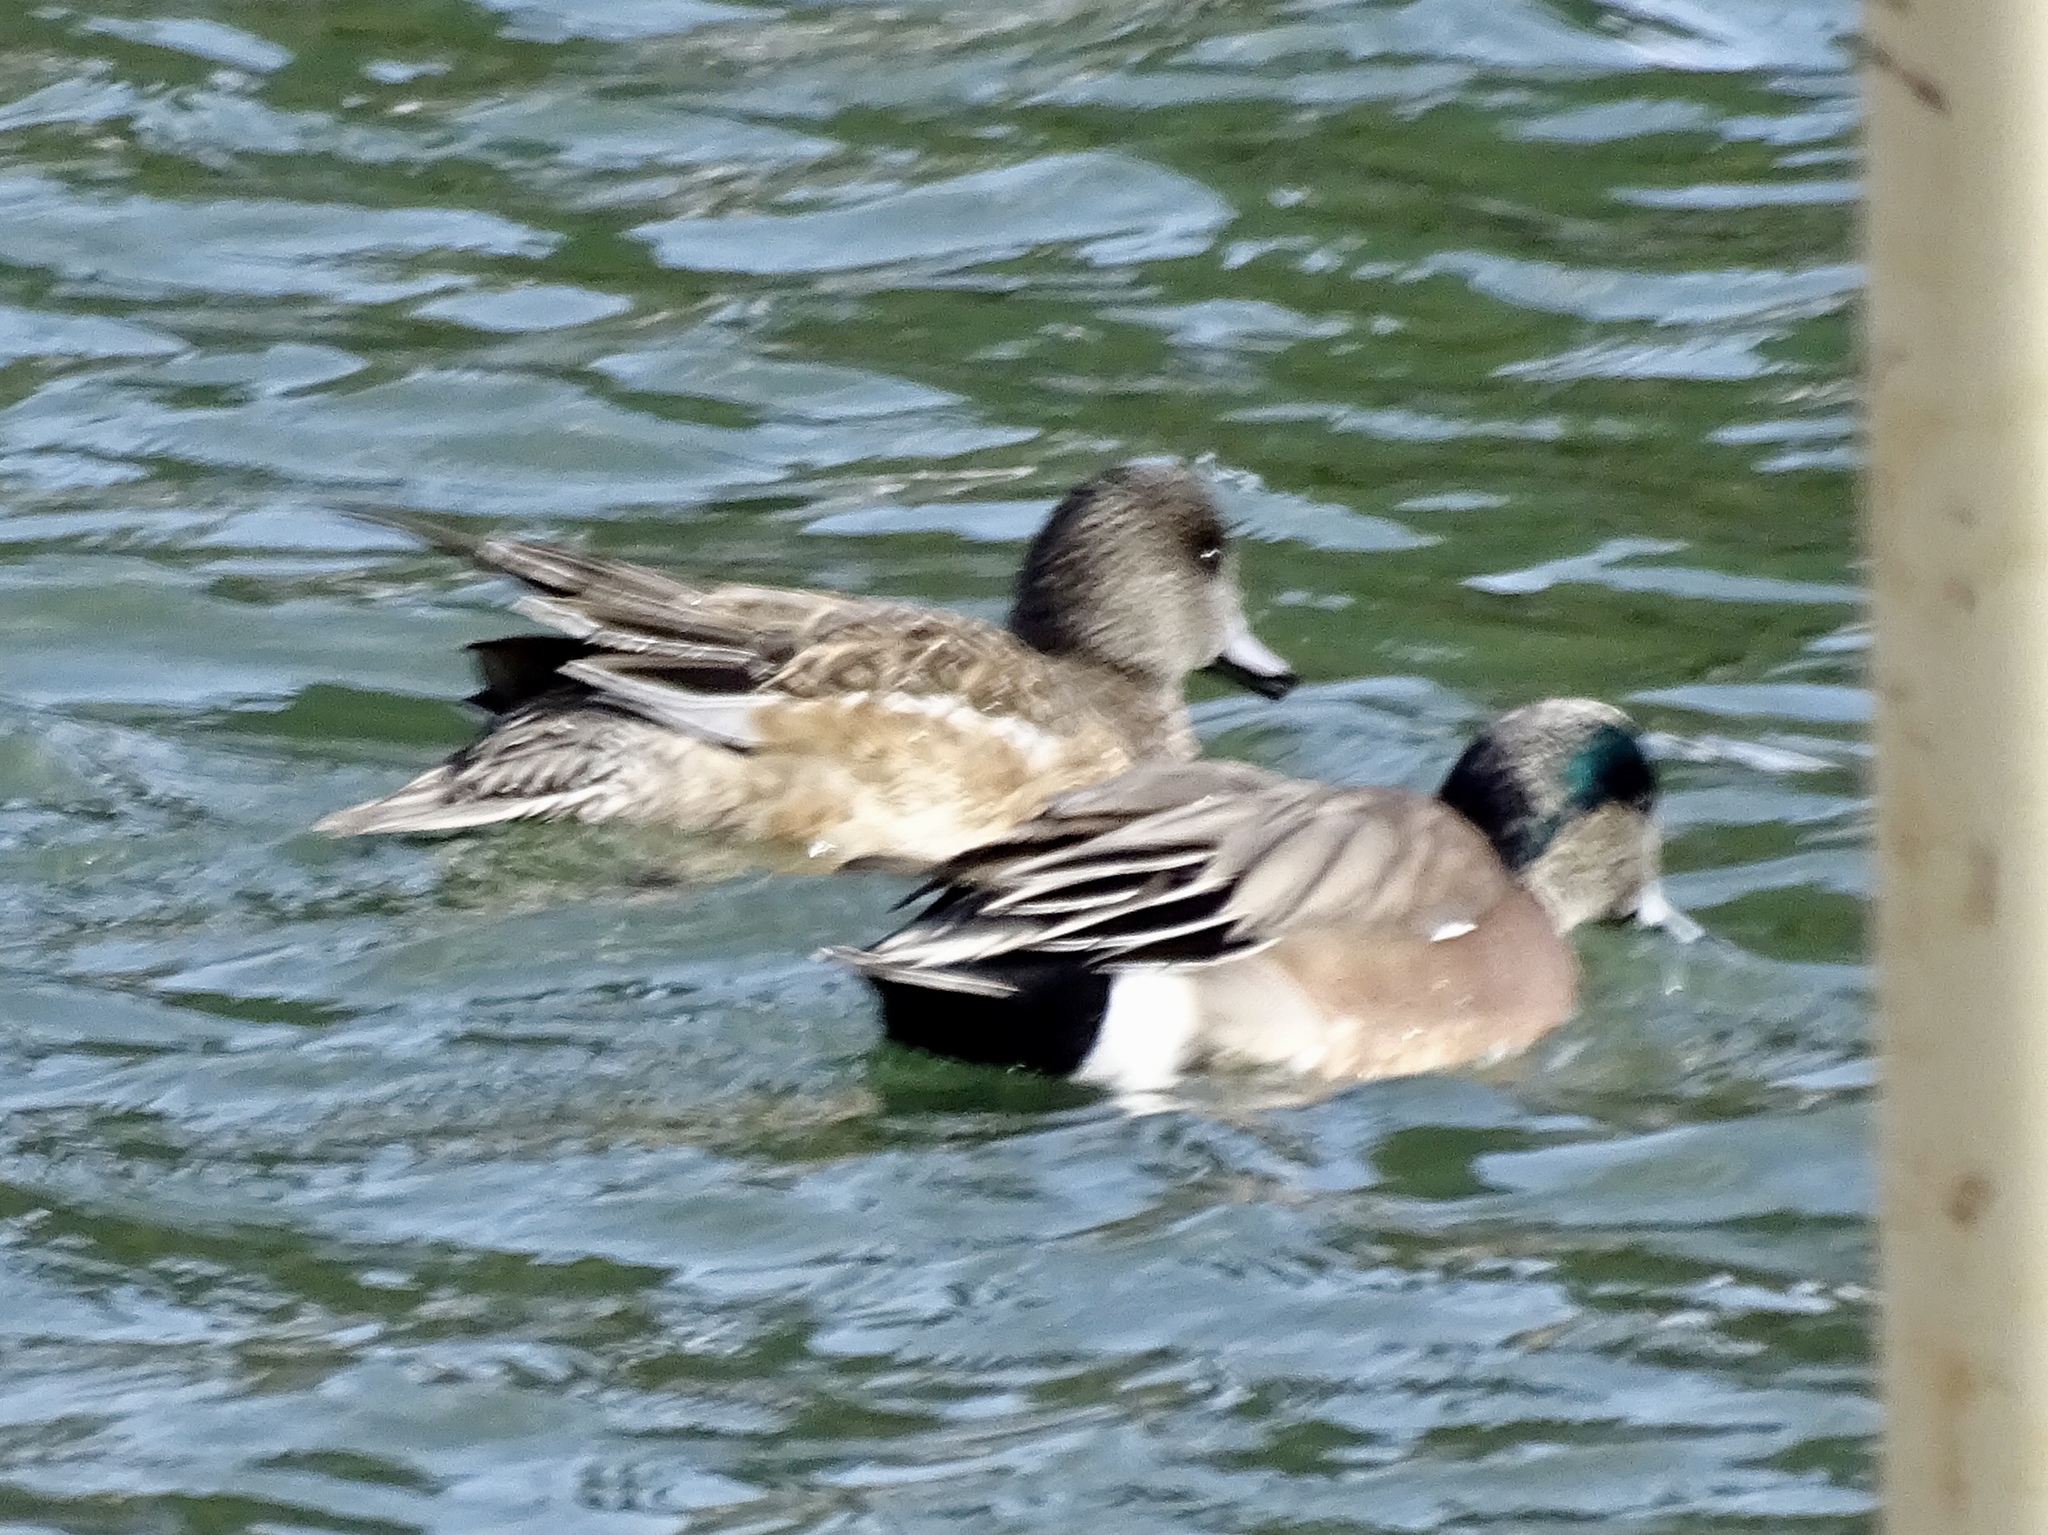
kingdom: Animalia
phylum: Chordata
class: Aves
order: Anseriformes
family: Anatidae
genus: Mareca
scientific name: Mareca americana
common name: American wigeon
